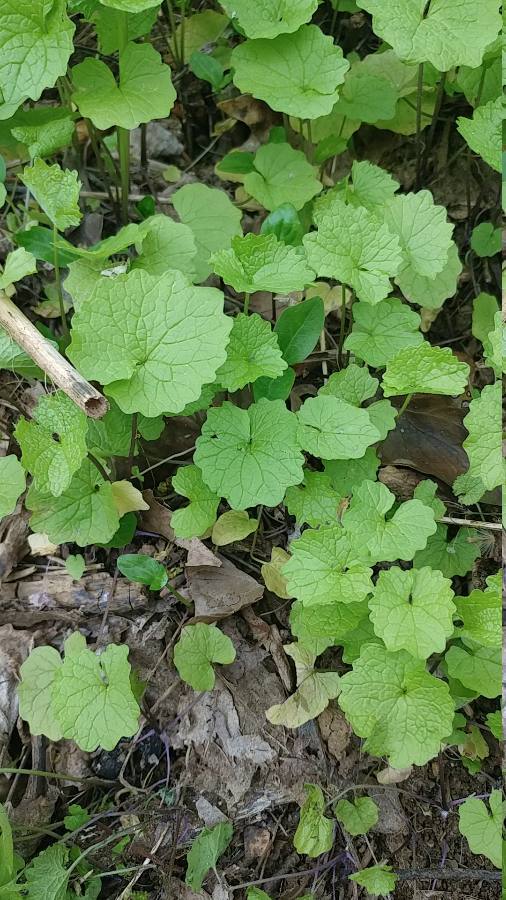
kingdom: Plantae
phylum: Tracheophyta
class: Magnoliopsida
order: Brassicales
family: Brassicaceae
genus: Alliaria
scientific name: Alliaria petiolata
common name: Garlic mustard
